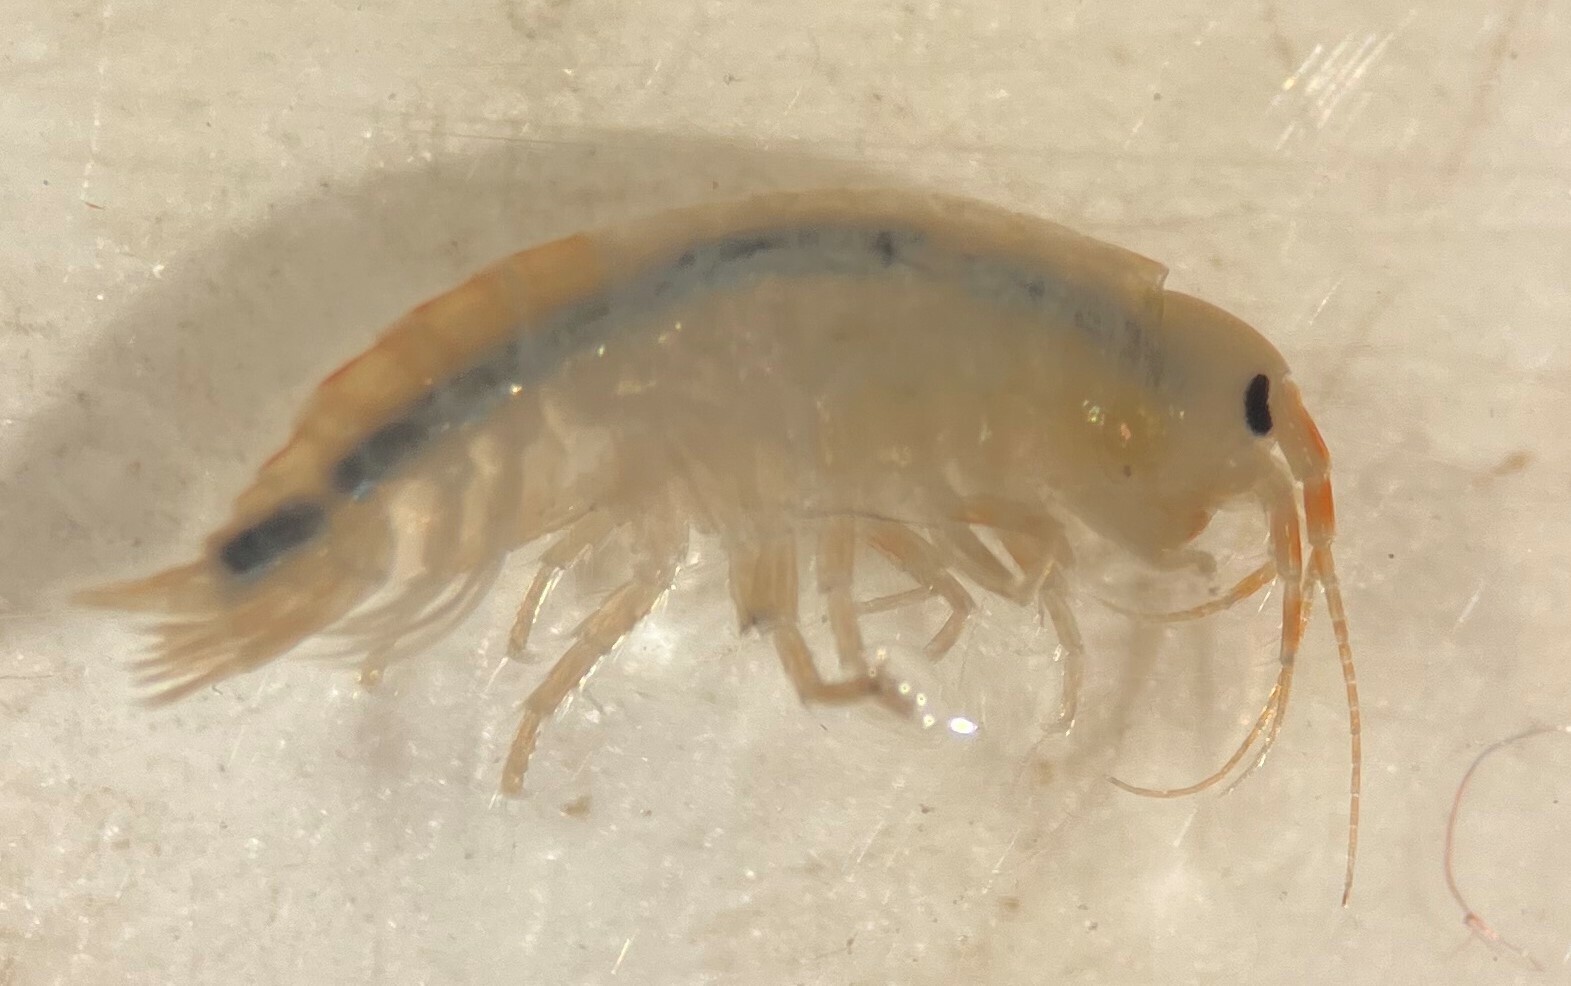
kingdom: Animalia
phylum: Arthropoda
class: Malacostraca
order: Amphipoda
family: Gammaridae
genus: Gammarus
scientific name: Gammarus seideli
